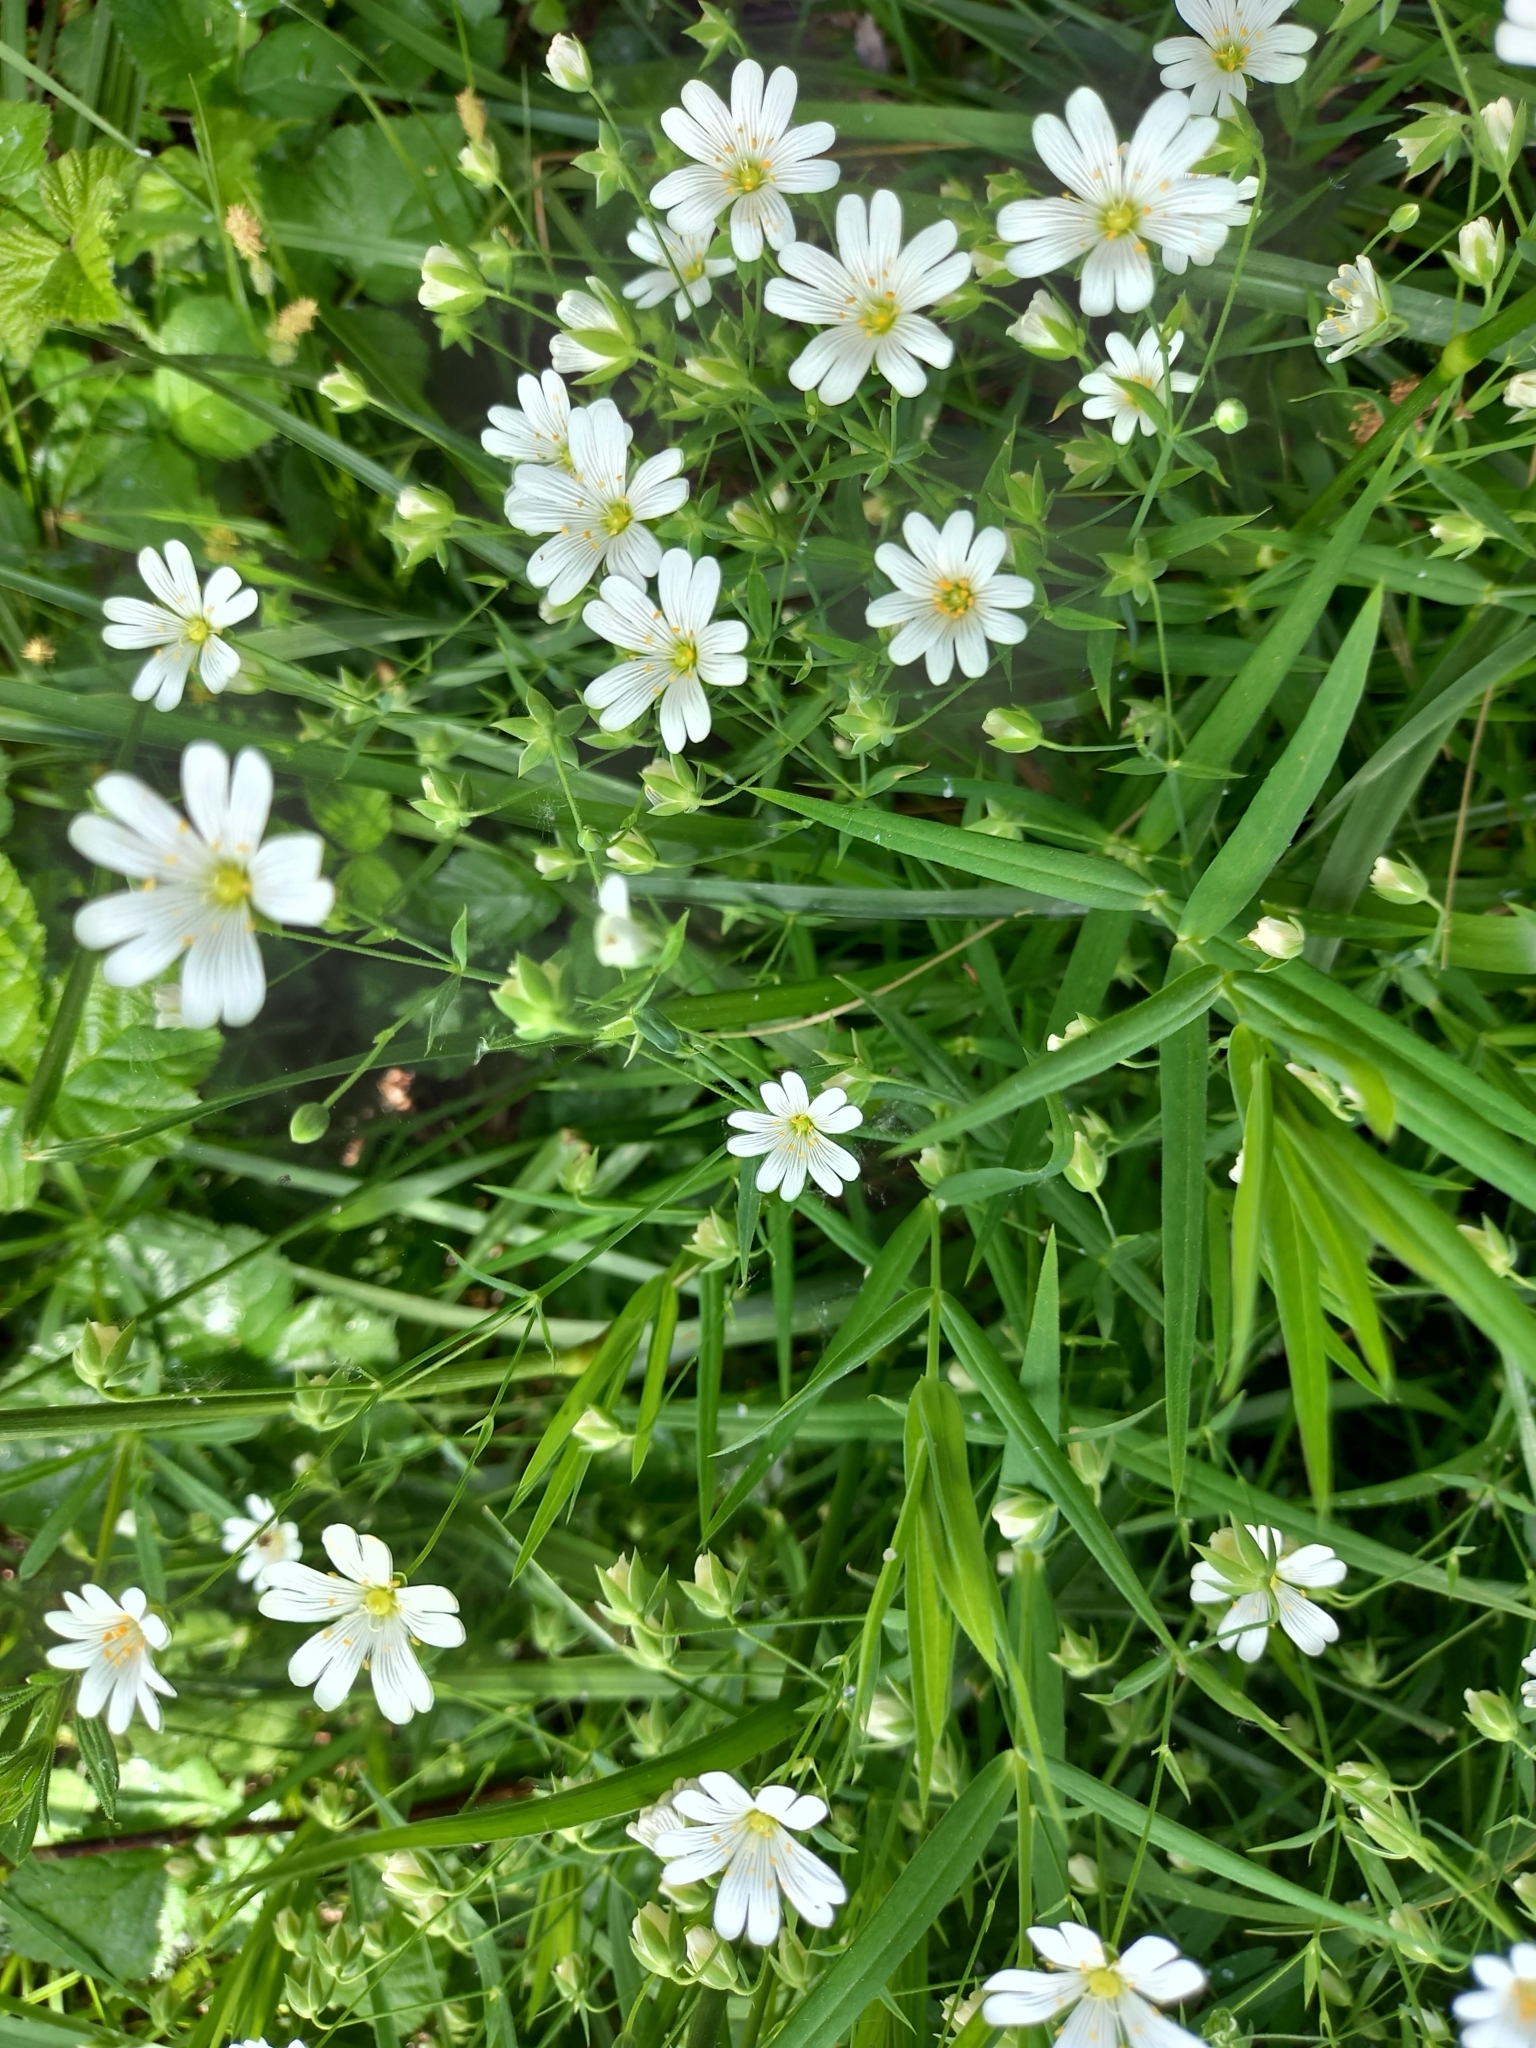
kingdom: Plantae
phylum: Tracheophyta
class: Magnoliopsida
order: Caryophyllales
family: Caryophyllaceae
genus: Rabelera
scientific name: Rabelera holostea
